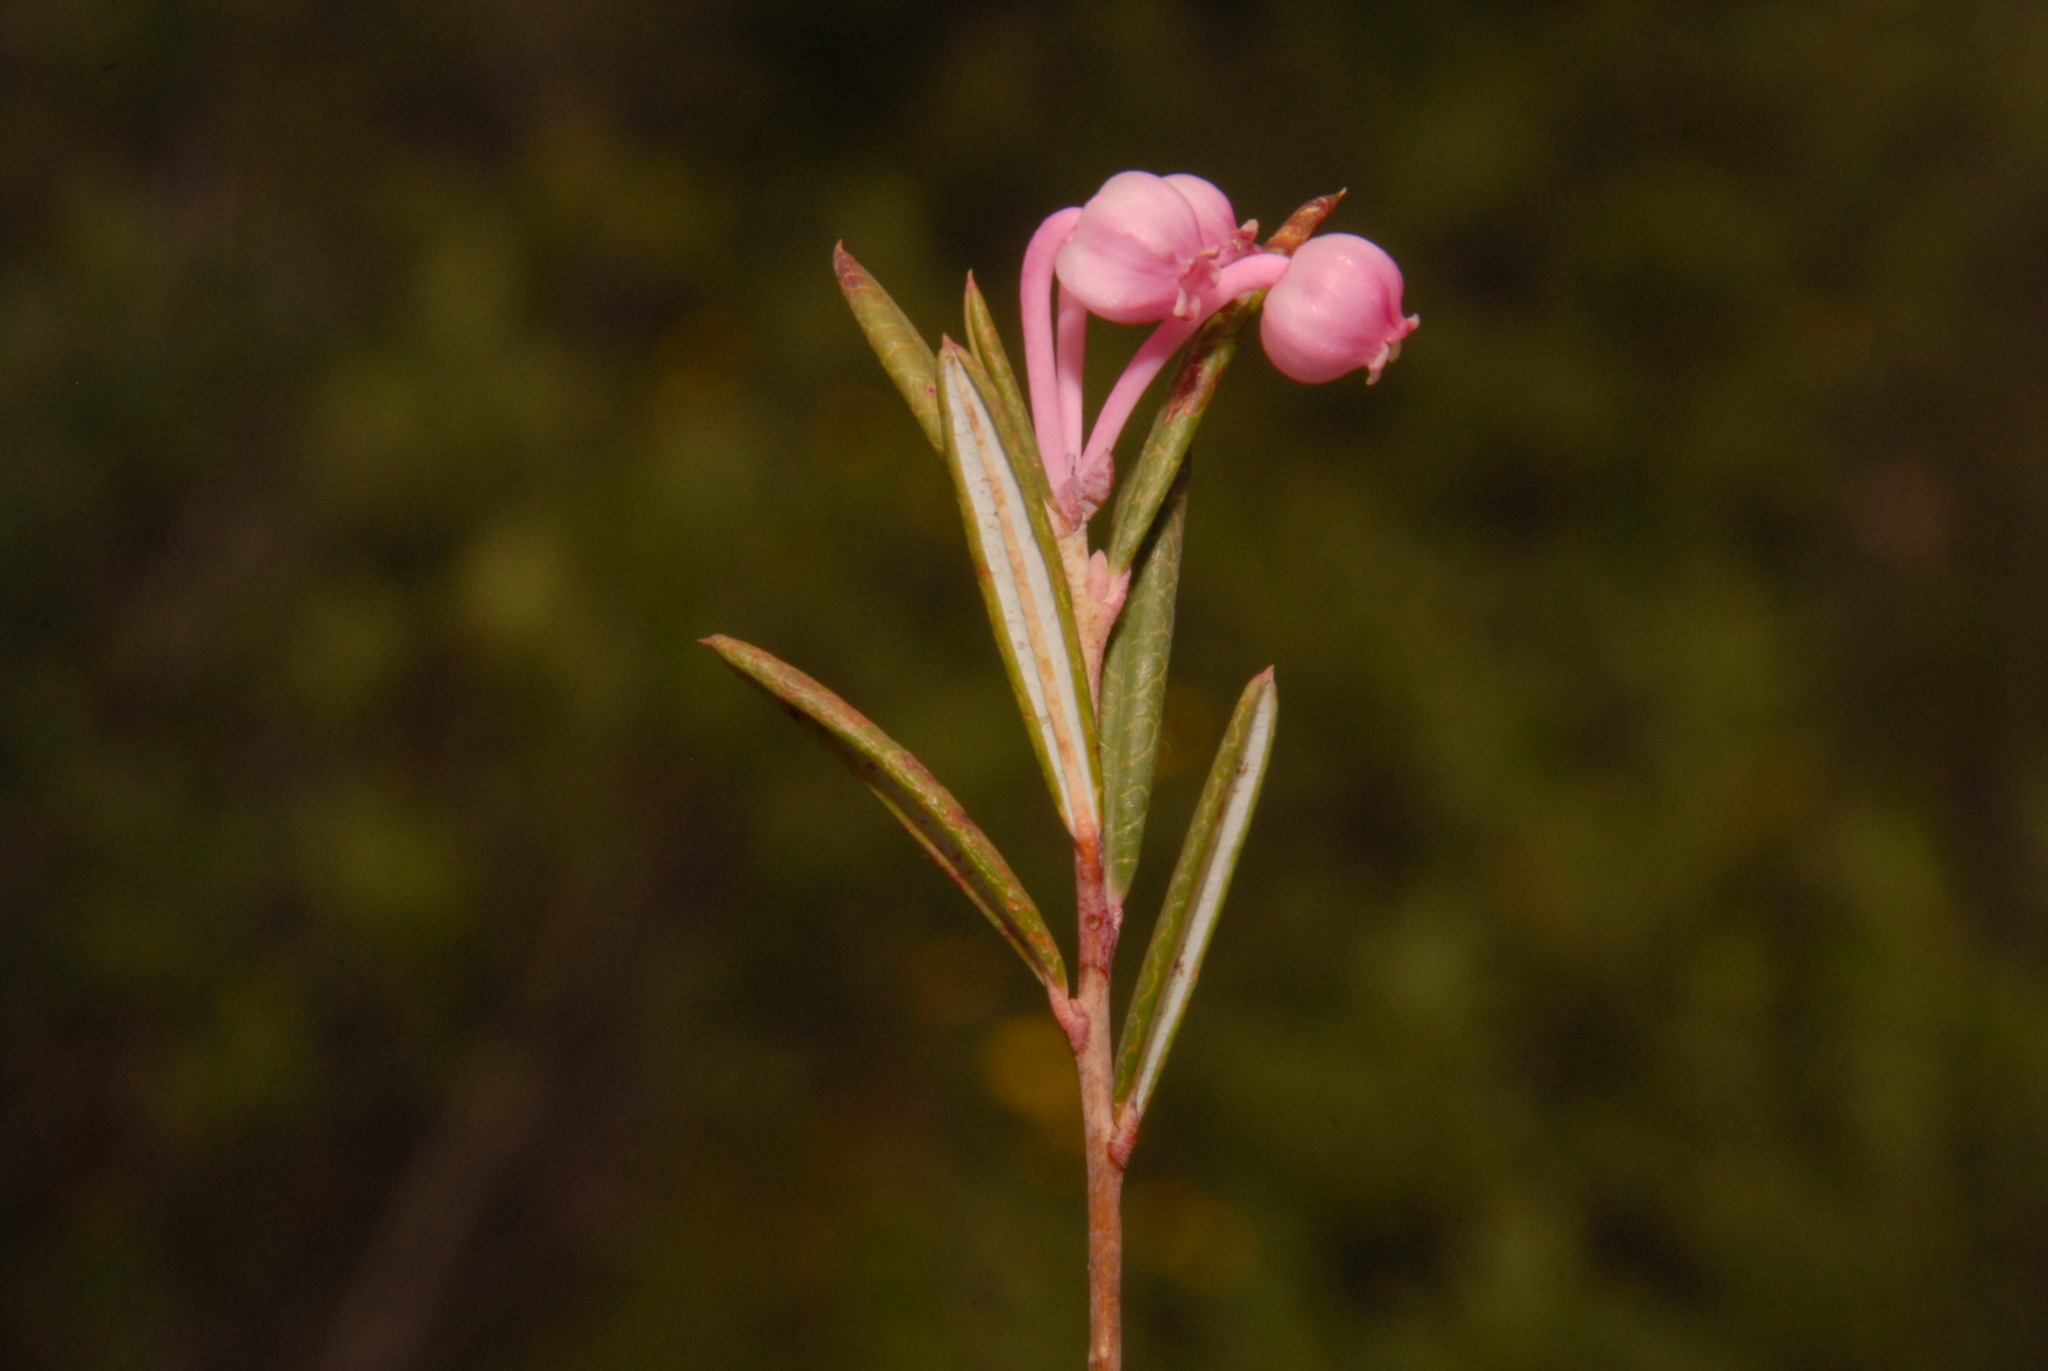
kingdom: Plantae
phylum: Tracheophyta
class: Magnoliopsida
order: Ericales
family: Ericaceae
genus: Andromeda
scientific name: Andromeda polifolia
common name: Bog-rosemary
